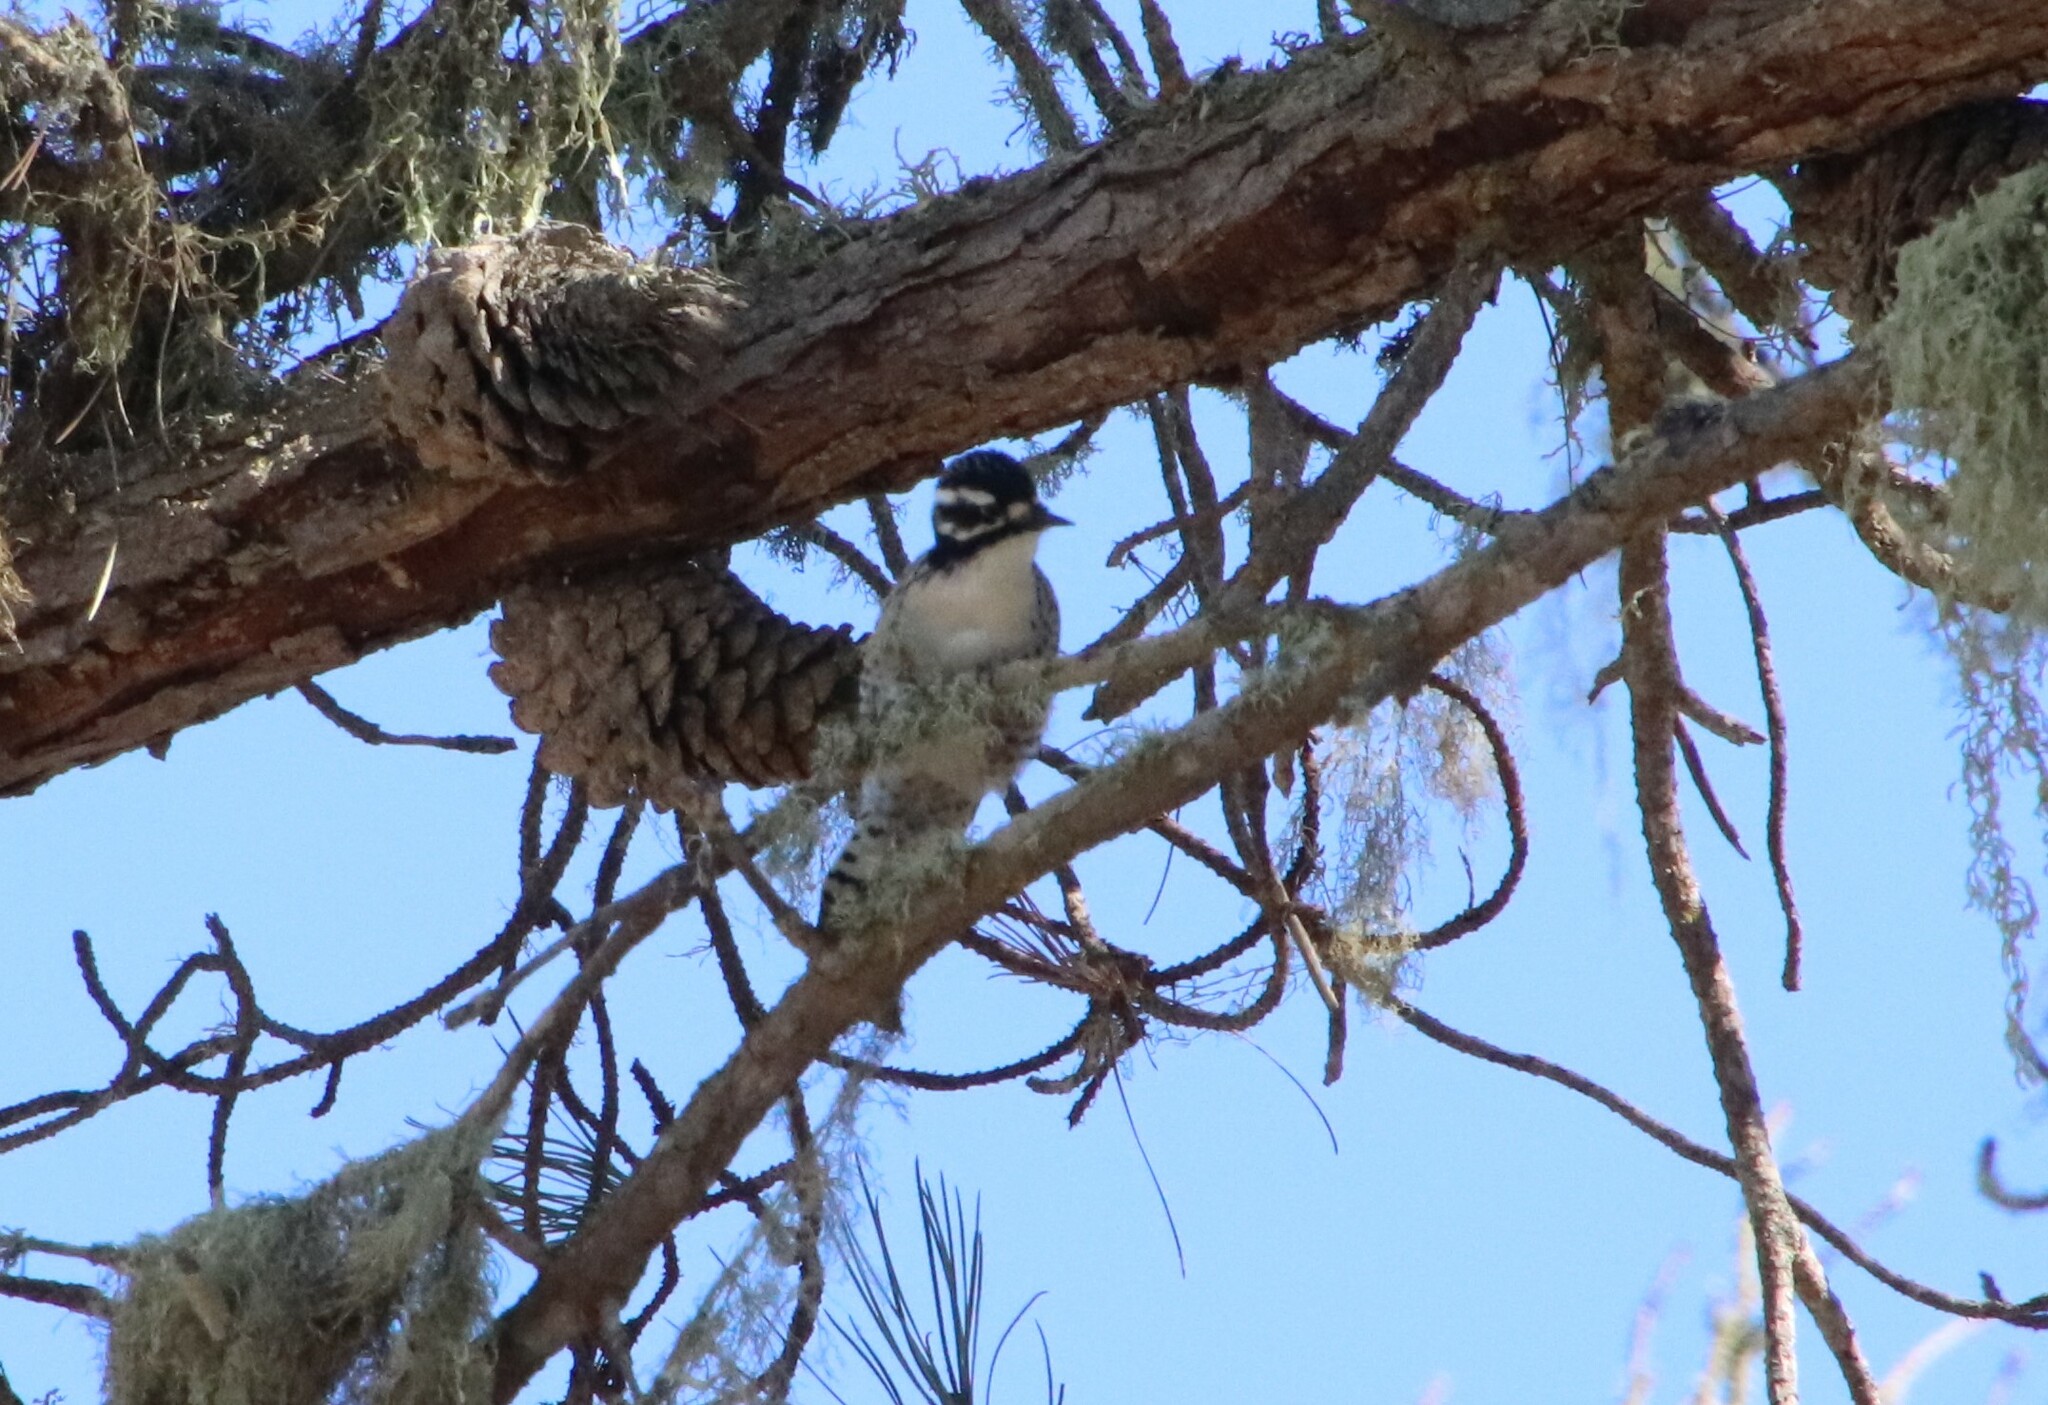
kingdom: Animalia
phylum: Chordata
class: Aves
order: Piciformes
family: Picidae
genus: Dryobates
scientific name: Dryobates nuttallii
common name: Nuttall's woodpecker
